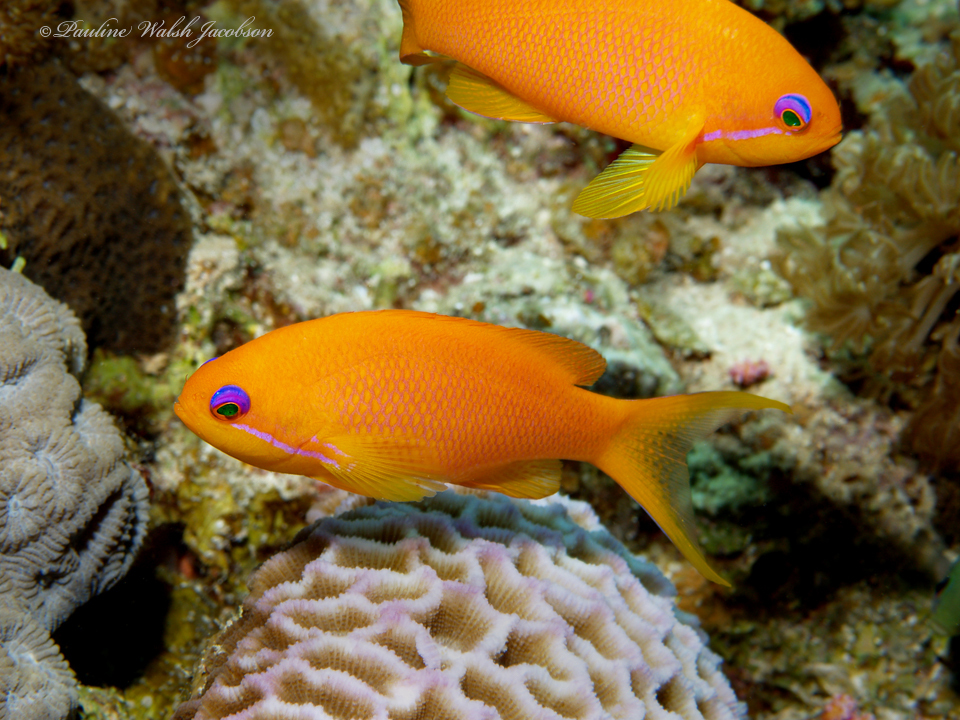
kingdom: Animalia
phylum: Chordata
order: Perciformes
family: Serranidae
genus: Pseudanthias
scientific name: Pseudanthias squamipinnis
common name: Scalefin anthias
